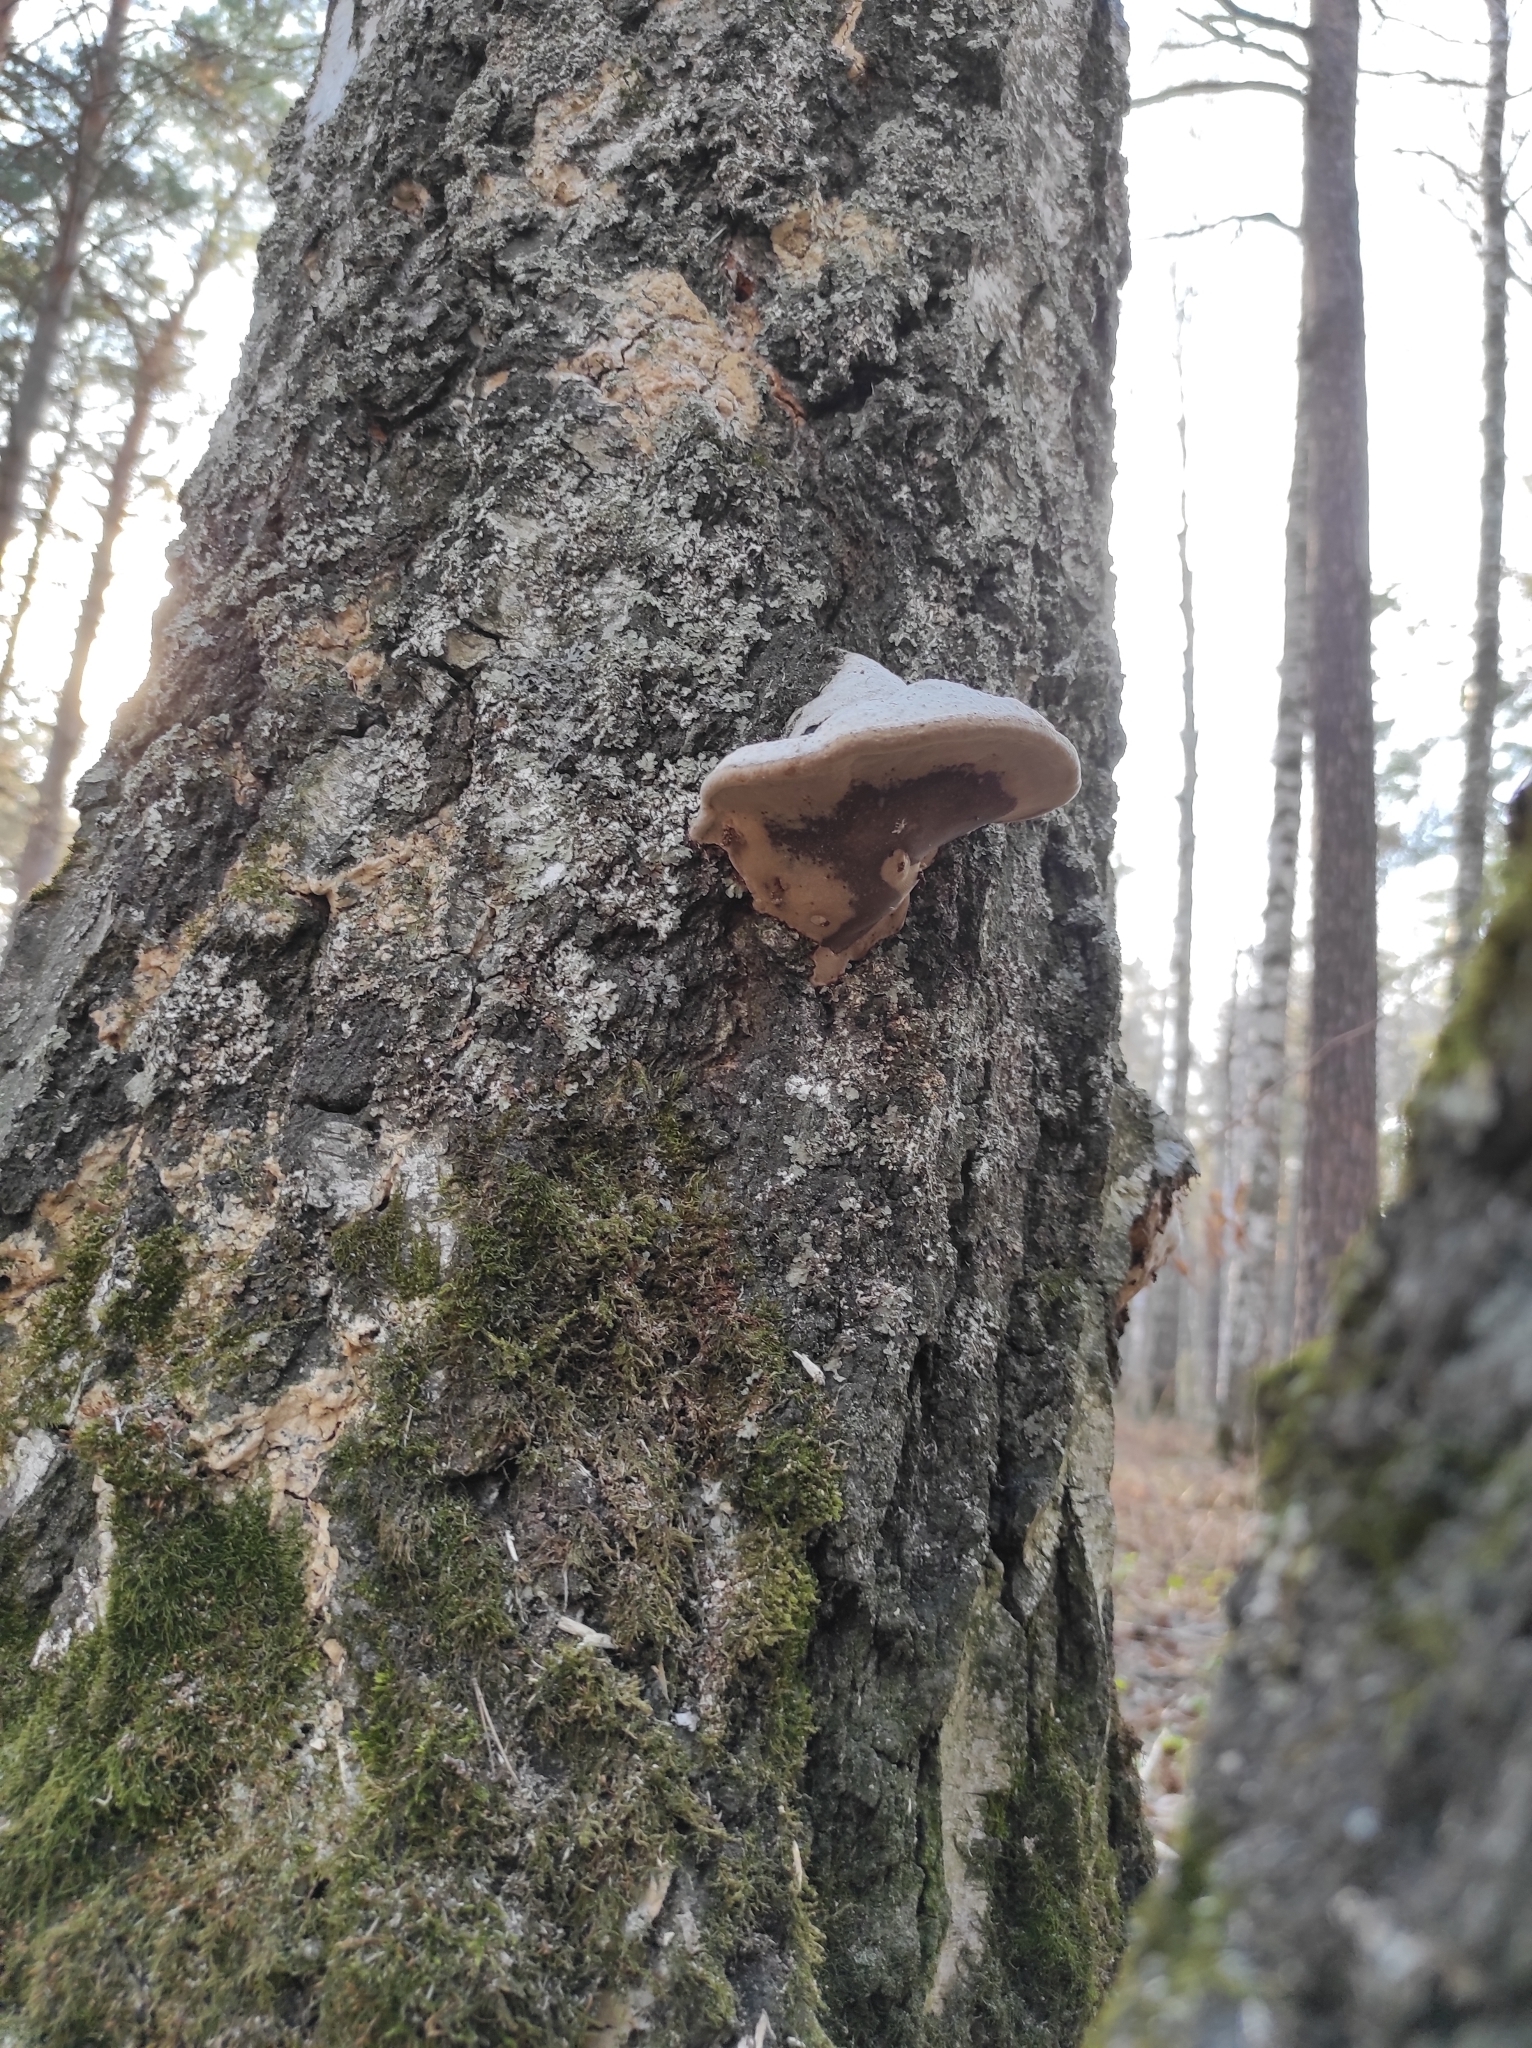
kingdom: Fungi
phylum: Basidiomycota
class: Agaricomycetes
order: Polyporales
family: Polyporaceae
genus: Fomes
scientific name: Fomes fomentarius
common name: Hoof fungus
